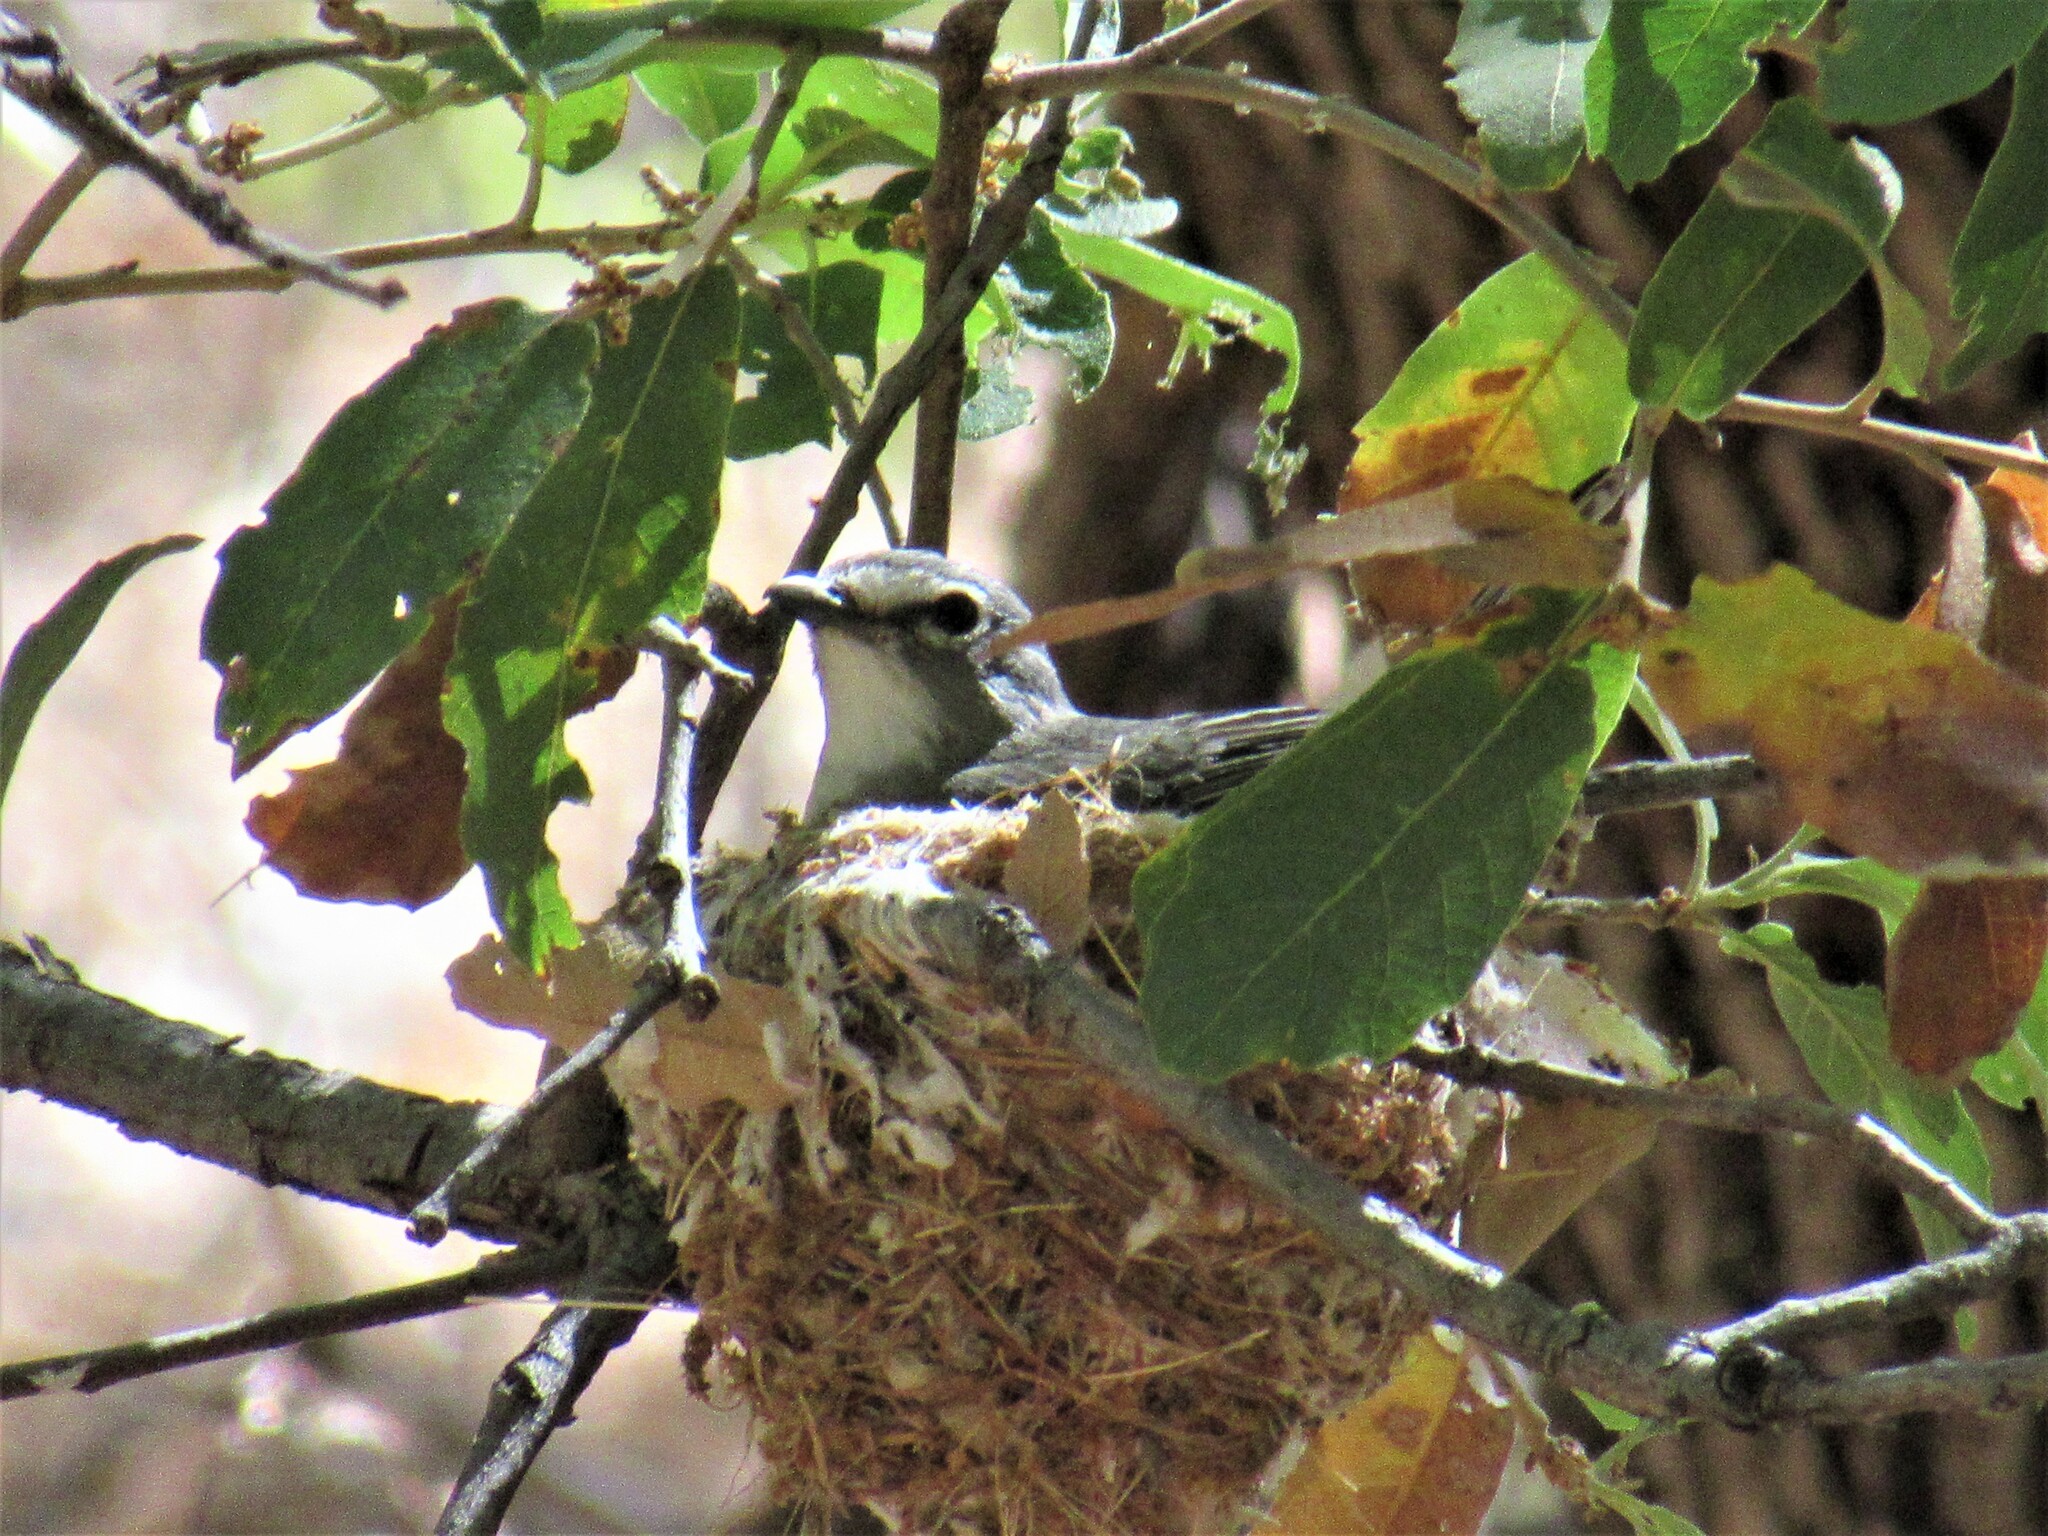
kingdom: Animalia
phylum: Chordata
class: Aves
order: Passeriformes
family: Vireonidae
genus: Vireo
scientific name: Vireo plumbeus
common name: Plumbeous vireo
